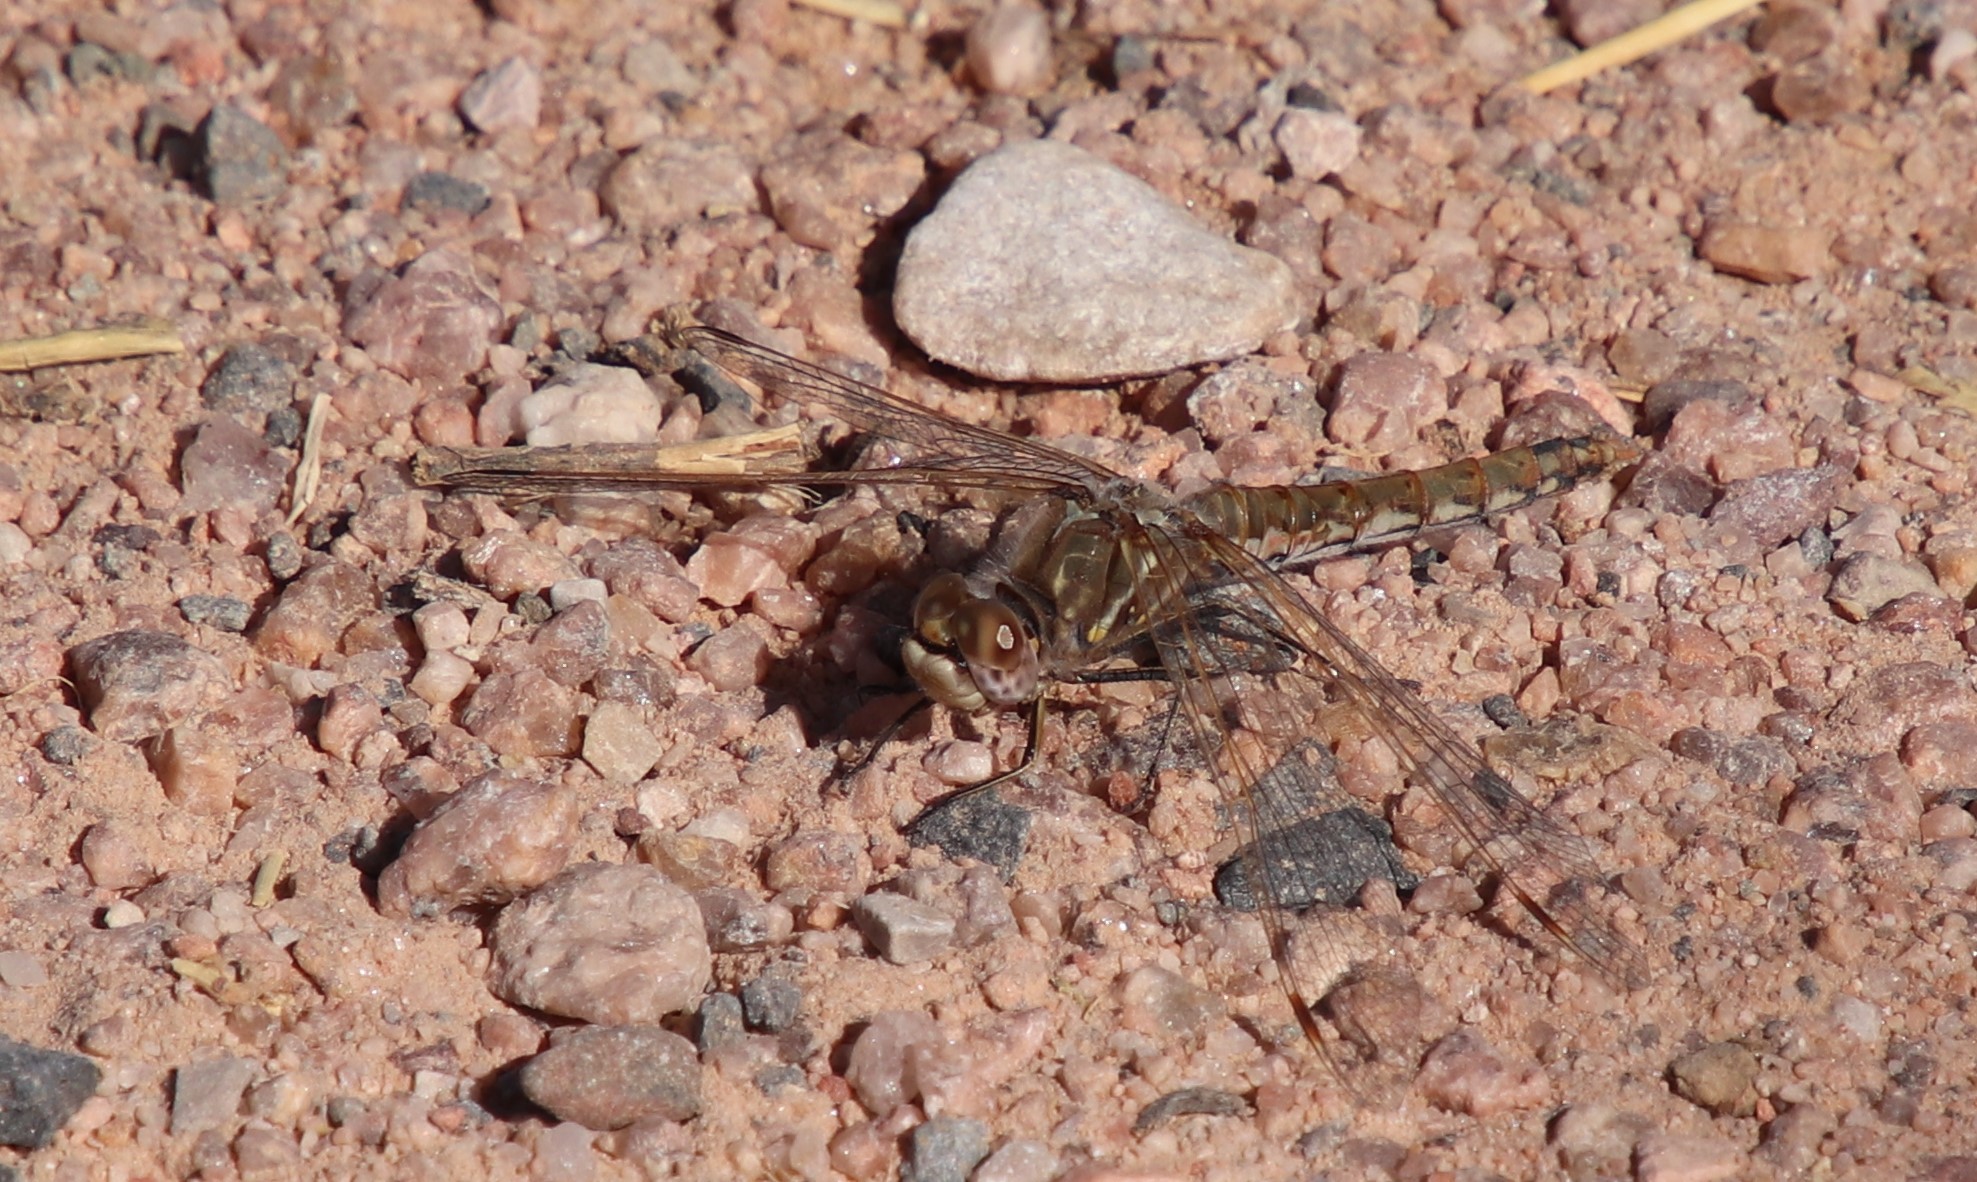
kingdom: Animalia
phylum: Arthropoda
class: Insecta
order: Odonata
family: Libellulidae
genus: Sympetrum
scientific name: Sympetrum corruptum
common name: Variegated meadowhawk
